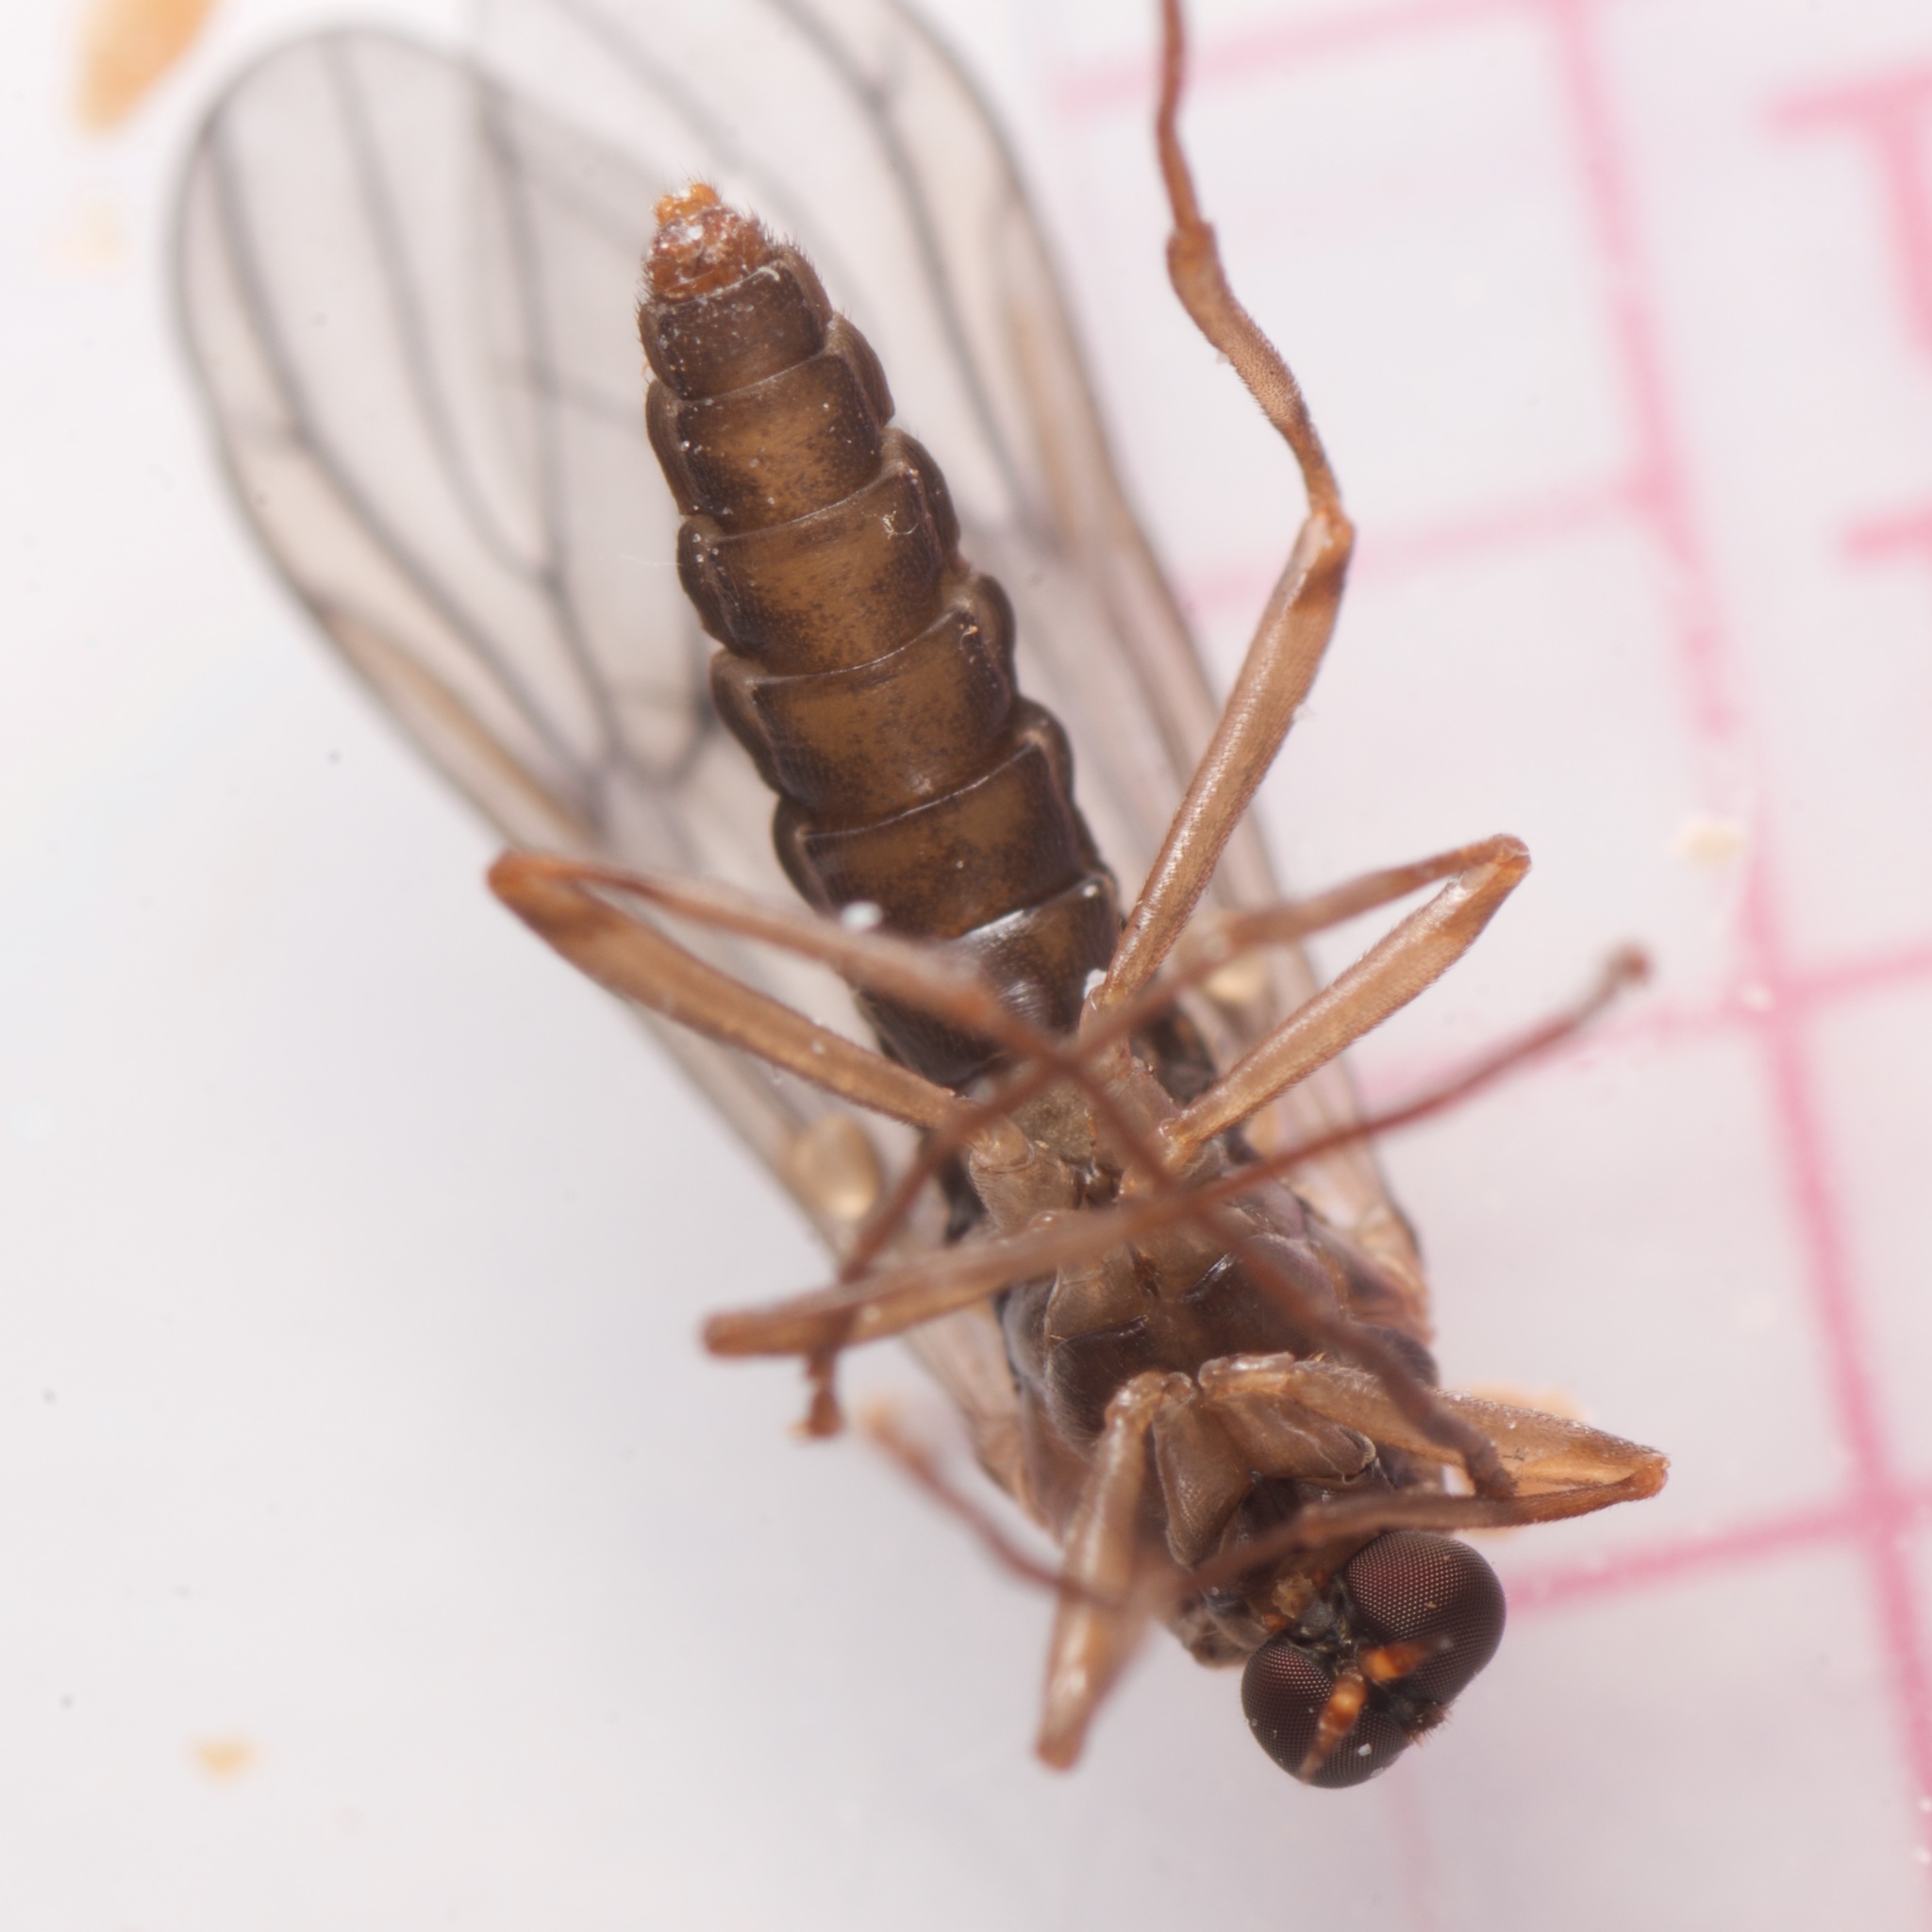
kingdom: Animalia
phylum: Arthropoda
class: Insecta
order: Diptera
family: Stratiomyidae
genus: Boreoides
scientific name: Boreoides tasmaniensis
